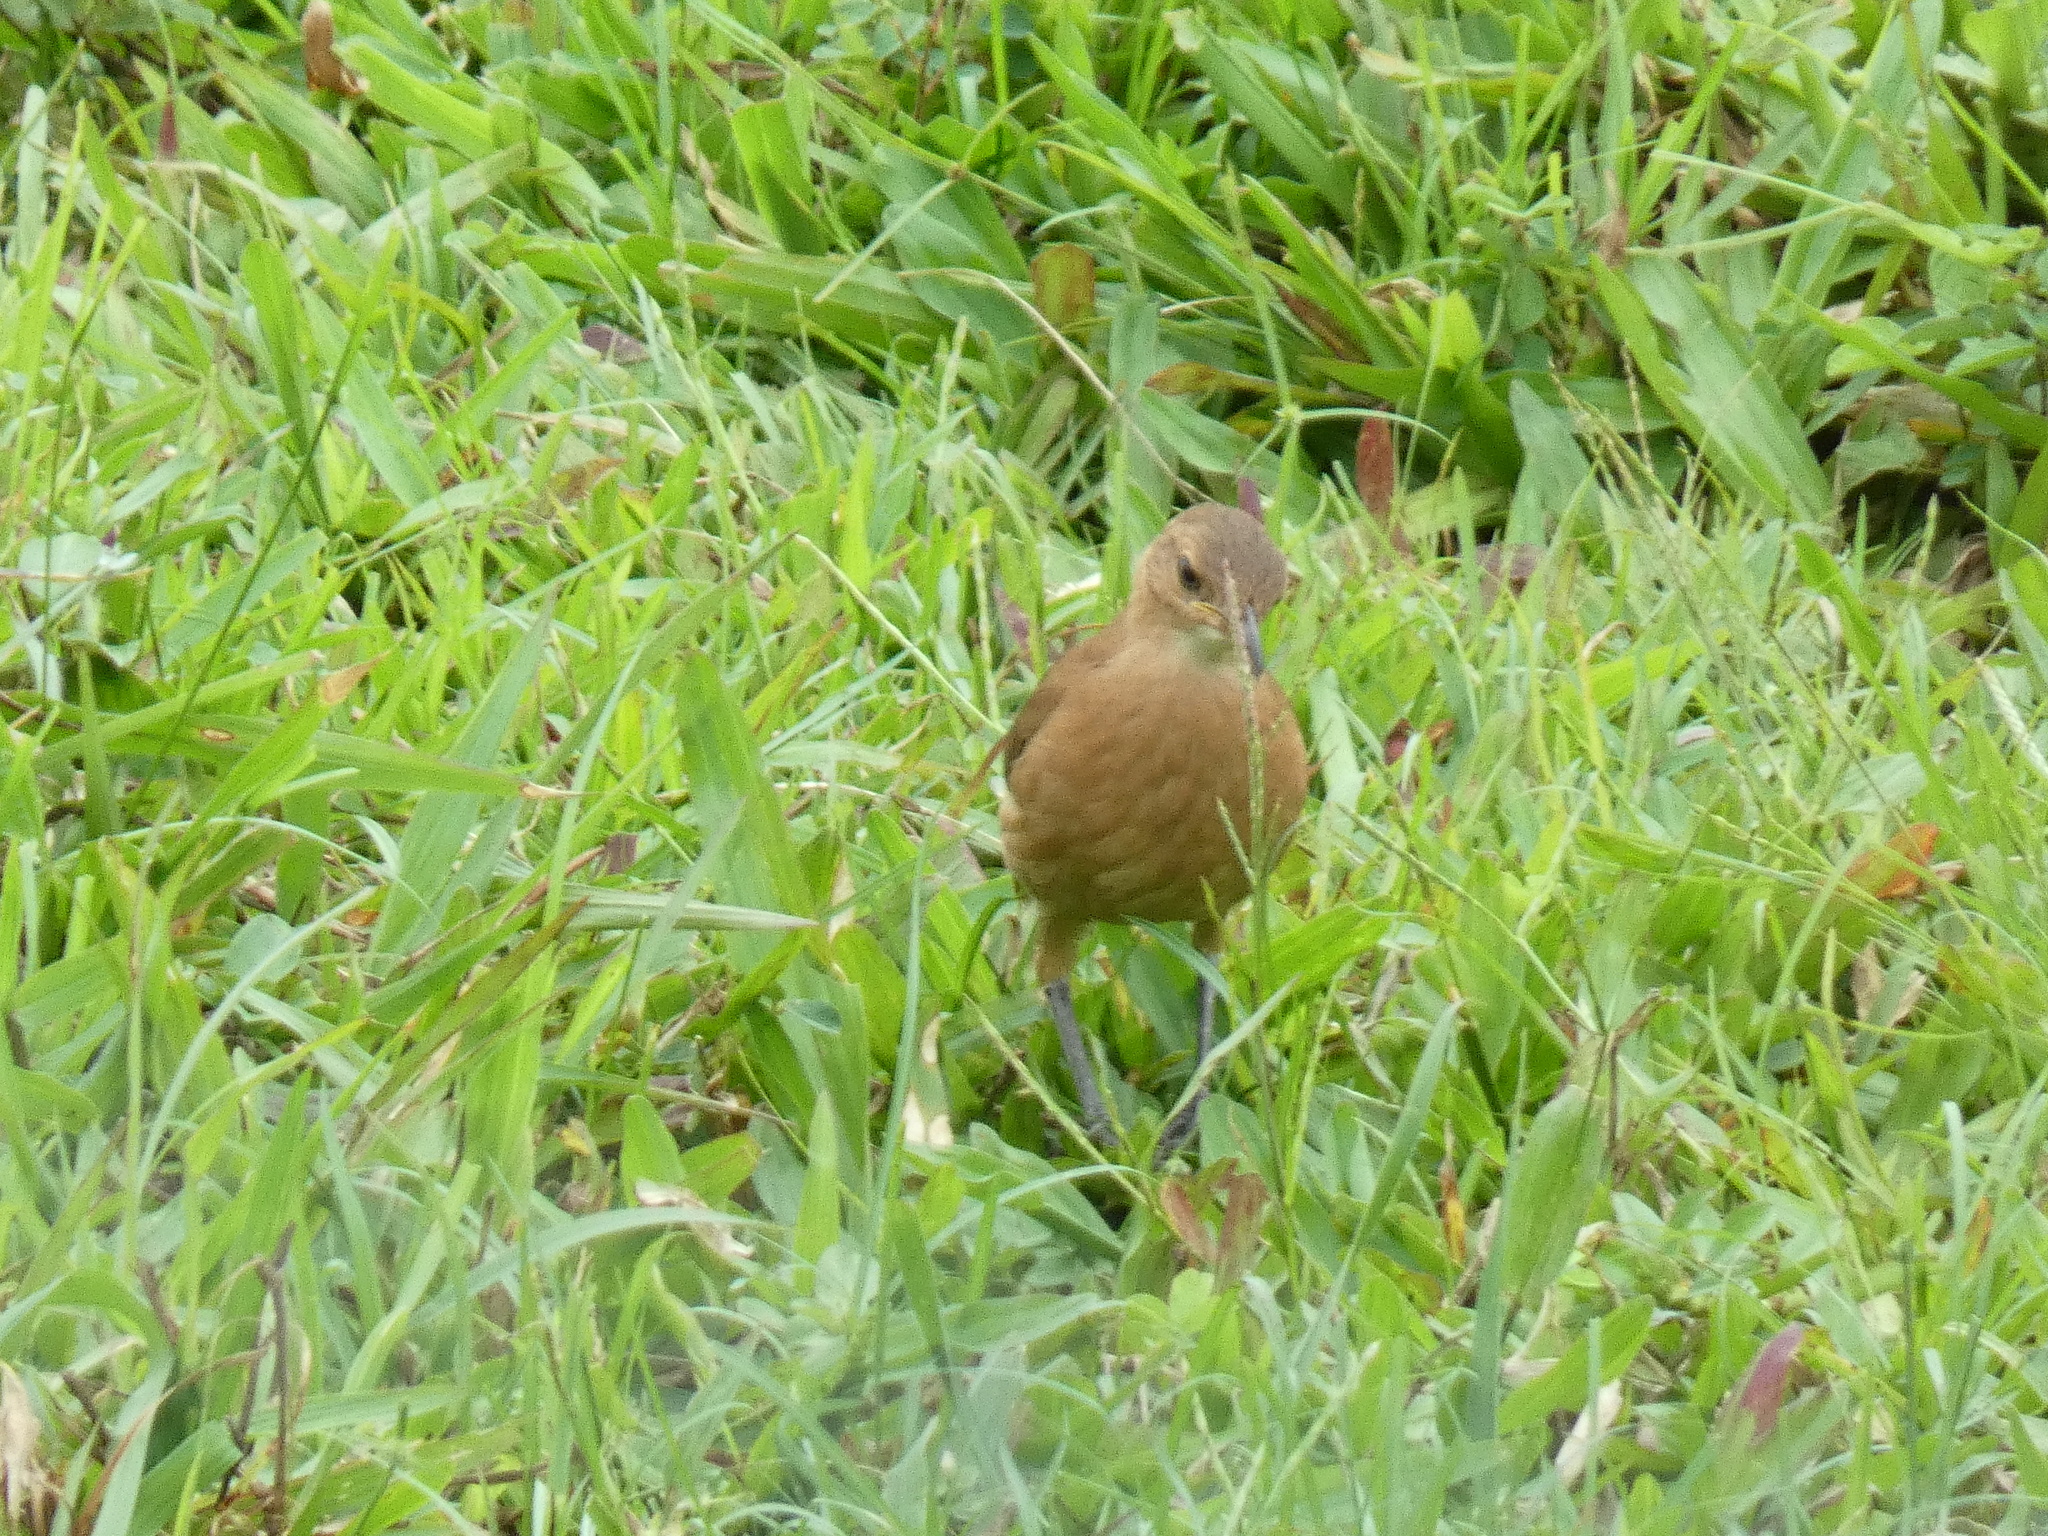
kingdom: Animalia
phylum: Chordata
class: Aves
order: Passeriformes
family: Furnariidae
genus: Furnarius
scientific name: Furnarius rufus
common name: Rufous hornero
